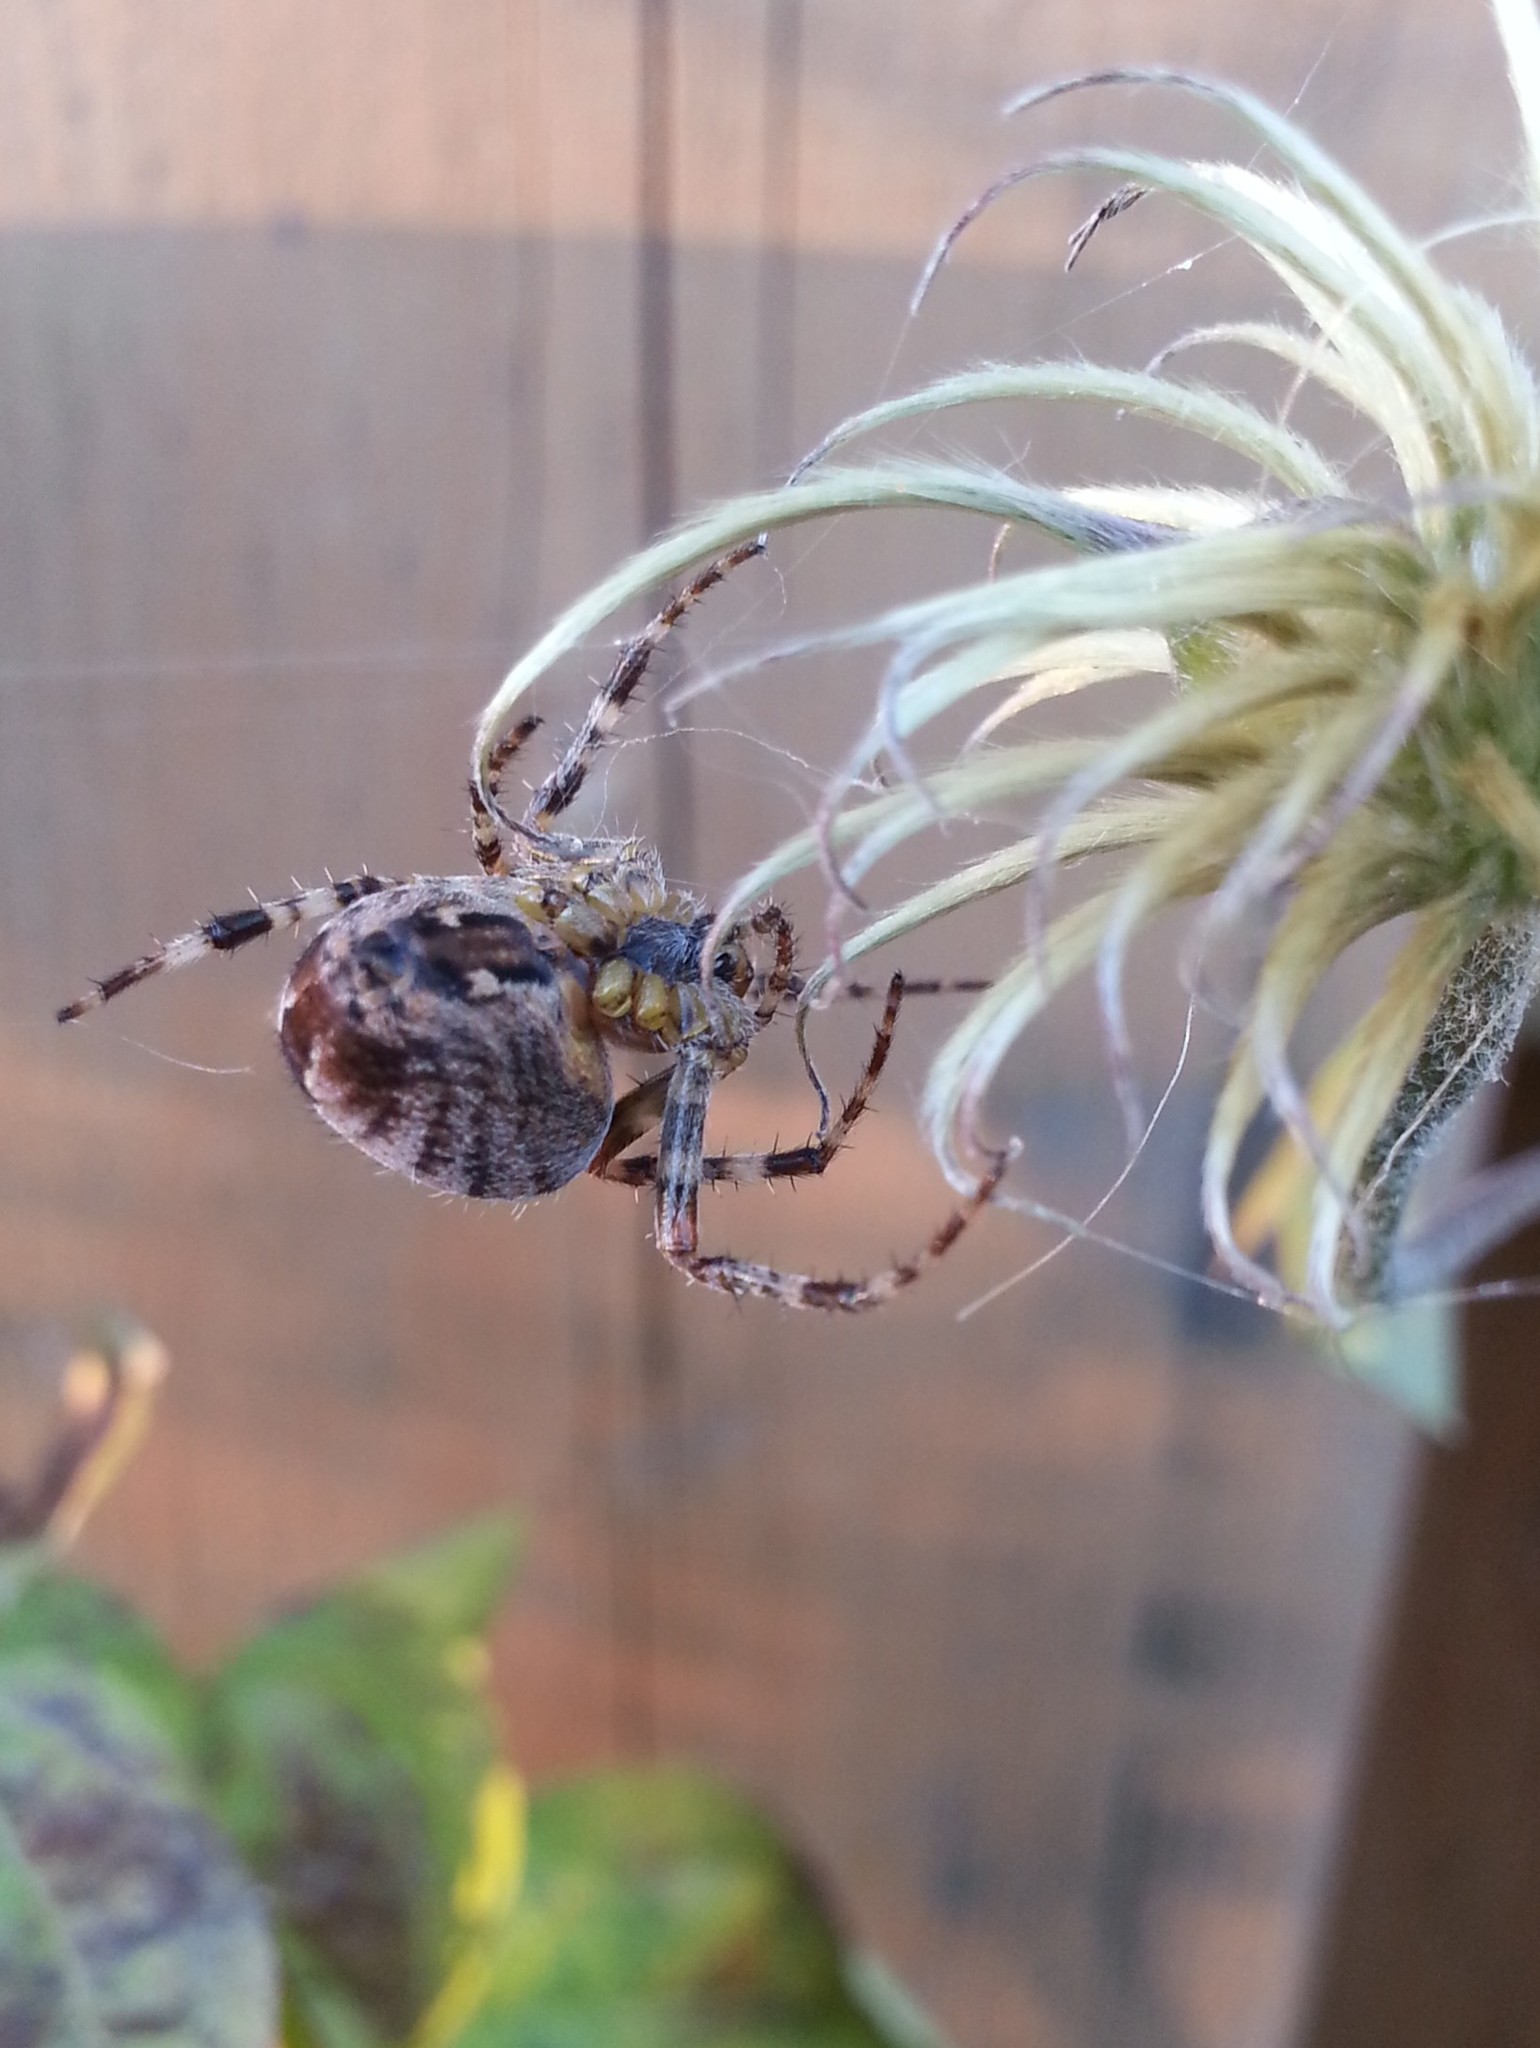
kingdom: Animalia
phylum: Arthropoda
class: Arachnida
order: Araneae
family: Araneidae
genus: Araneus
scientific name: Araneus diadematus
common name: Cross orbweaver
